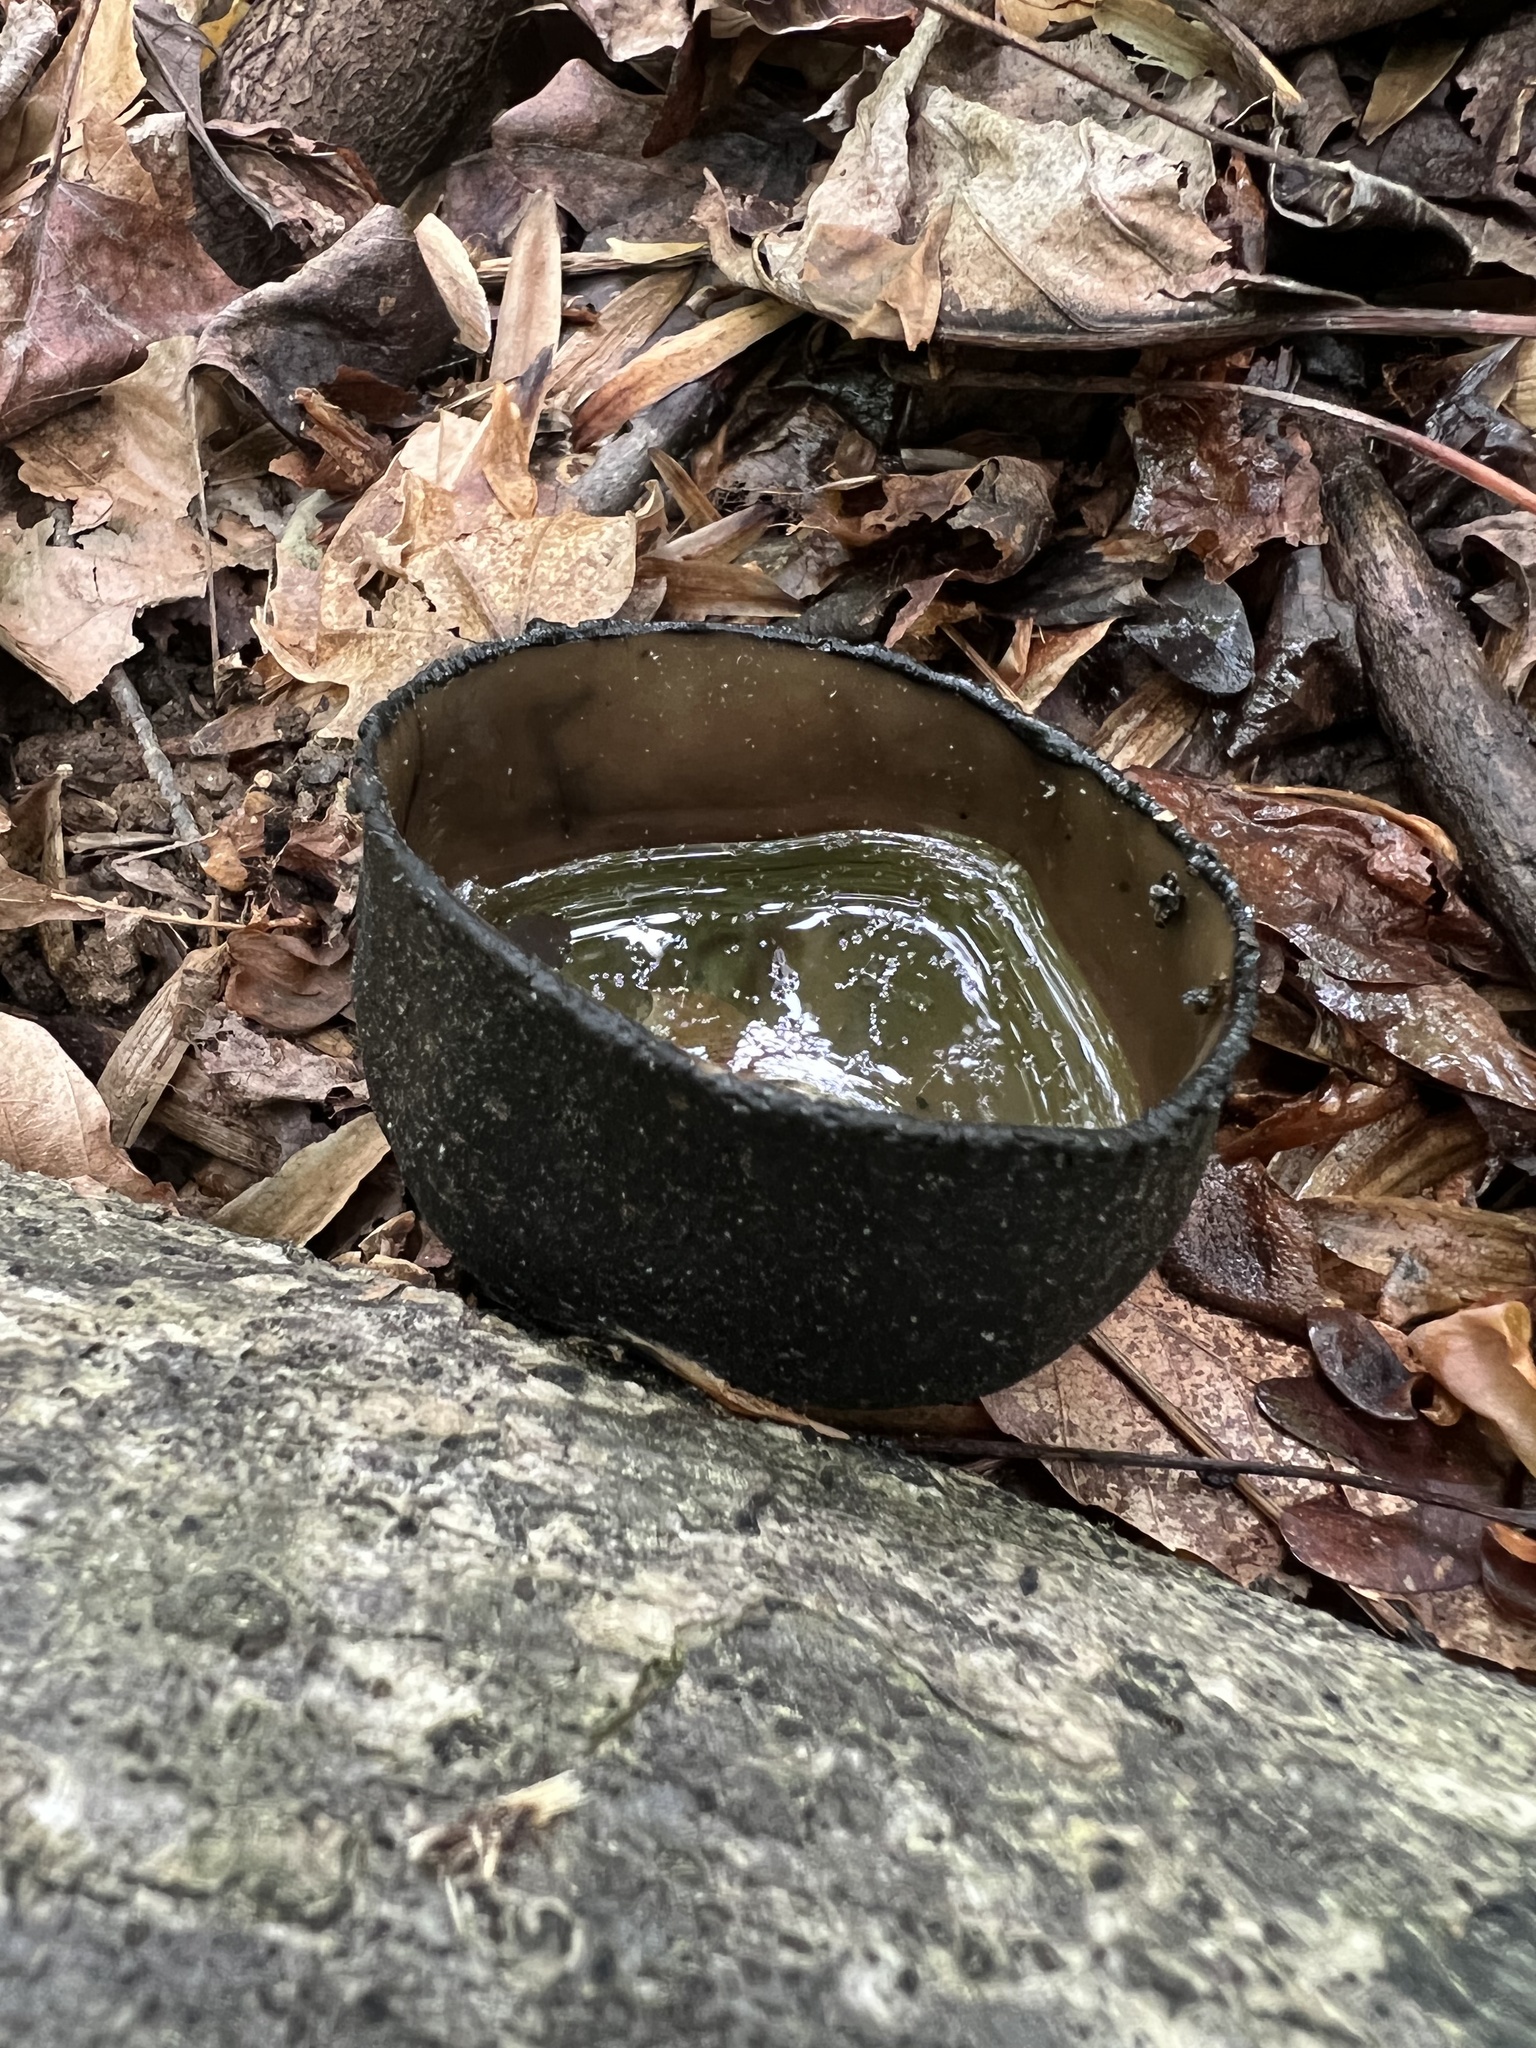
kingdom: Fungi
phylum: Ascomycota
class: Pezizomycetes
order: Pezizales
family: Sarcosomataceae
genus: Urnula
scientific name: Urnula craterium
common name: Devil's urn
